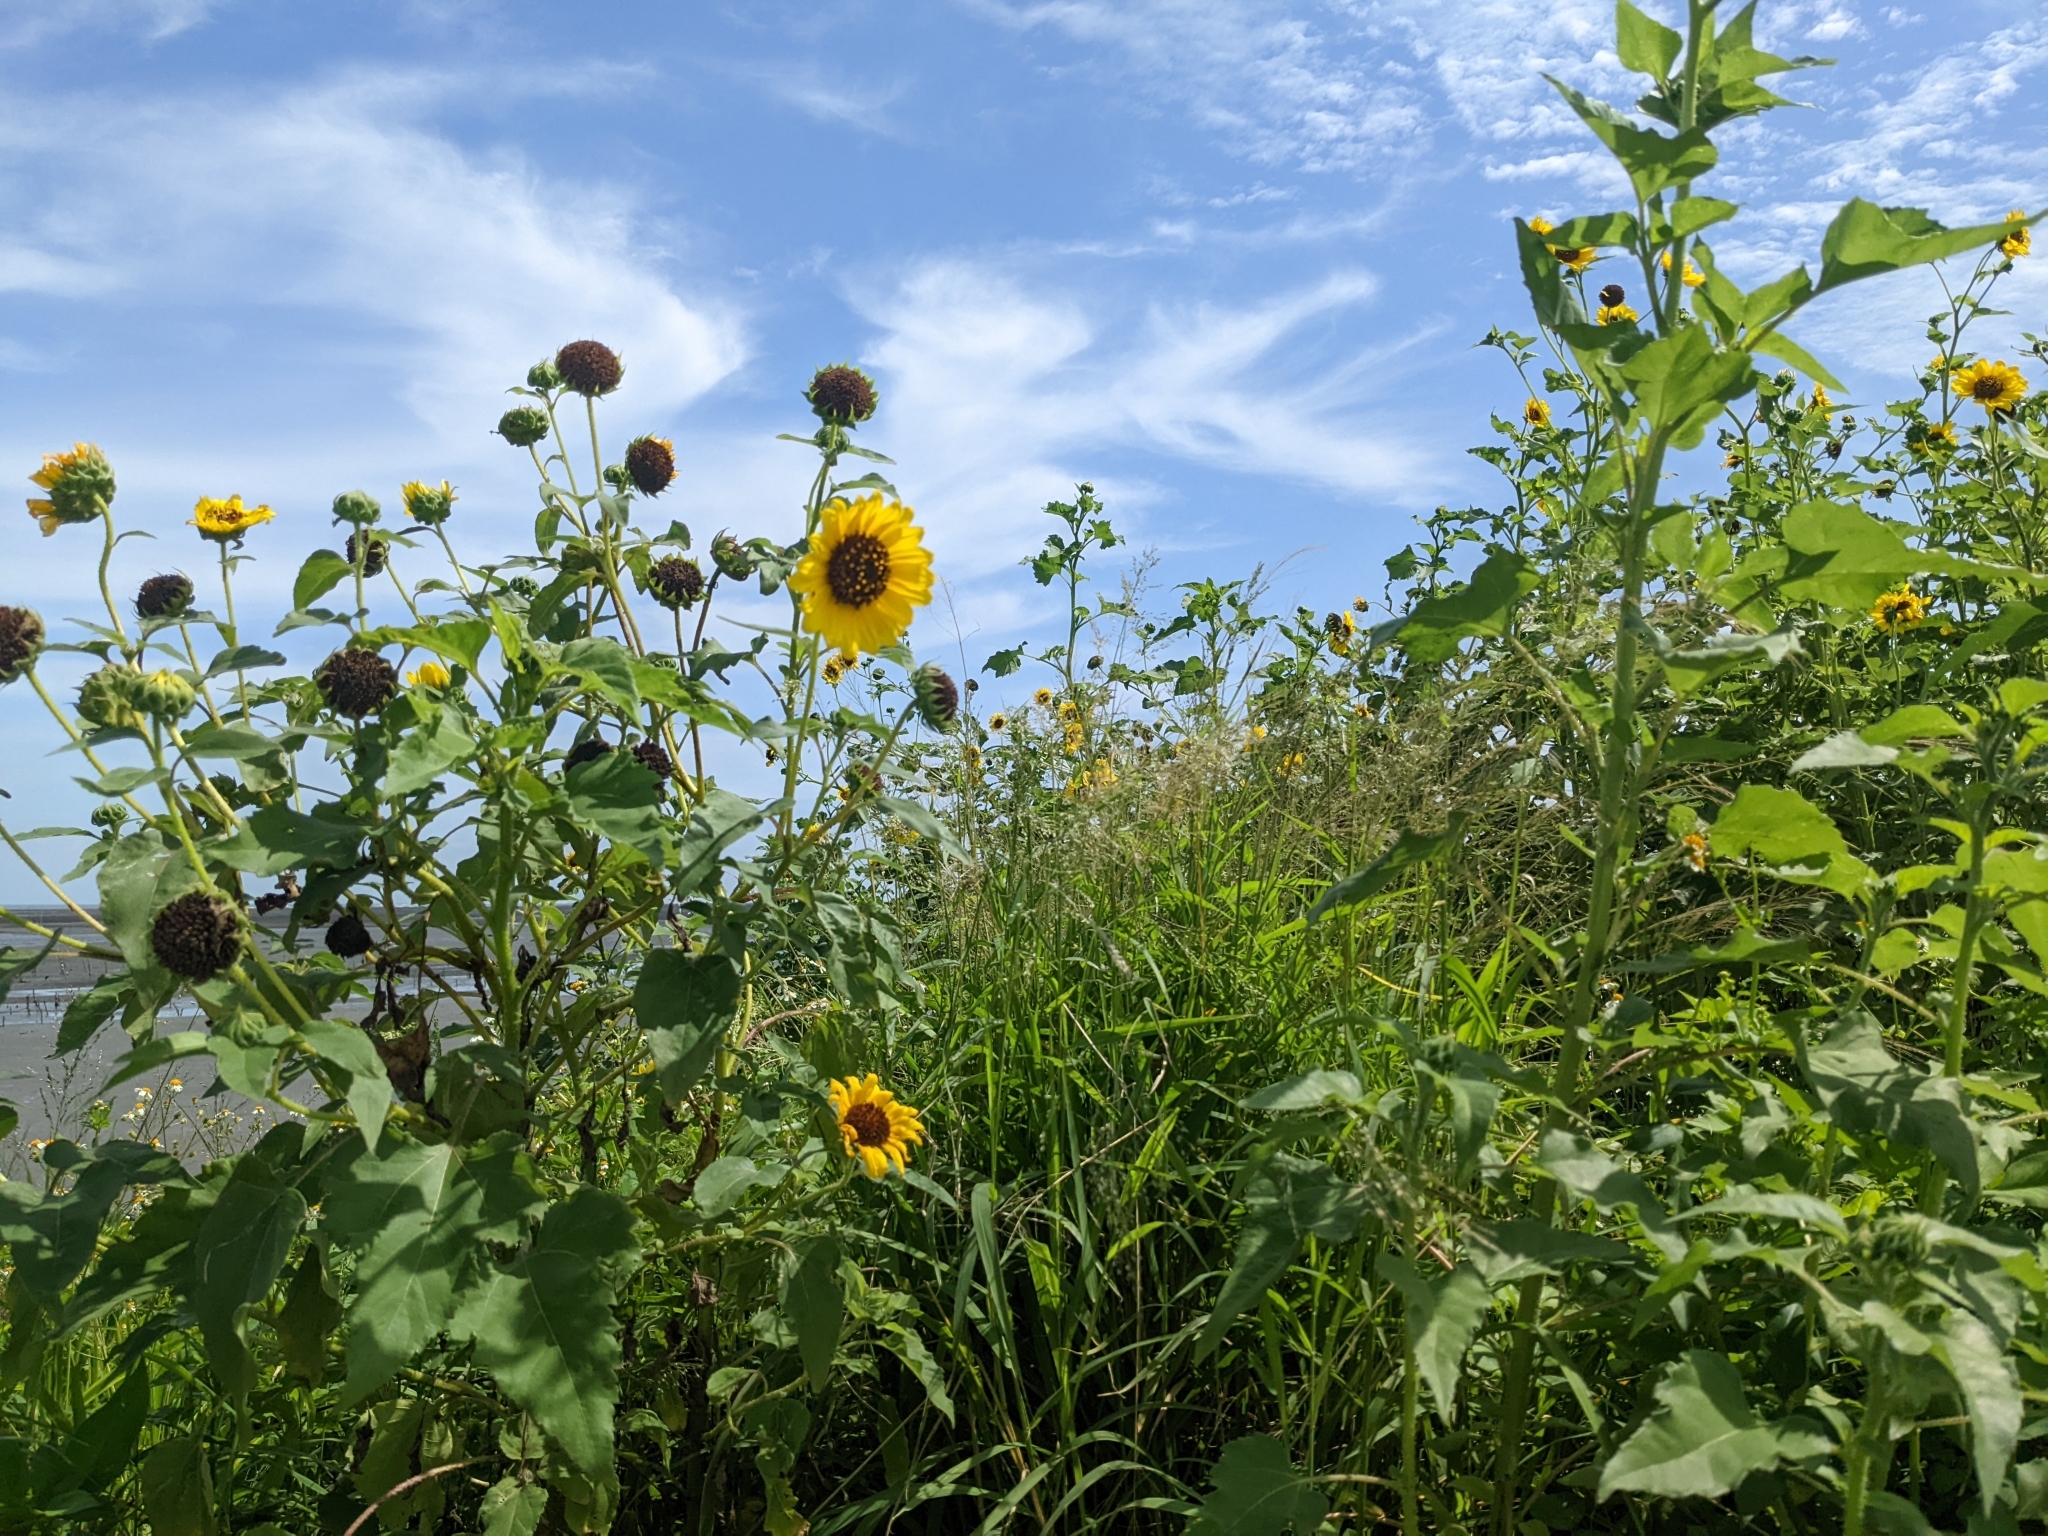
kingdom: Plantae
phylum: Tracheophyta
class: Magnoliopsida
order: Asterales
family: Asteraceae
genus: Helianthus
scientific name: Helianthus annuus
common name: Sunflower
